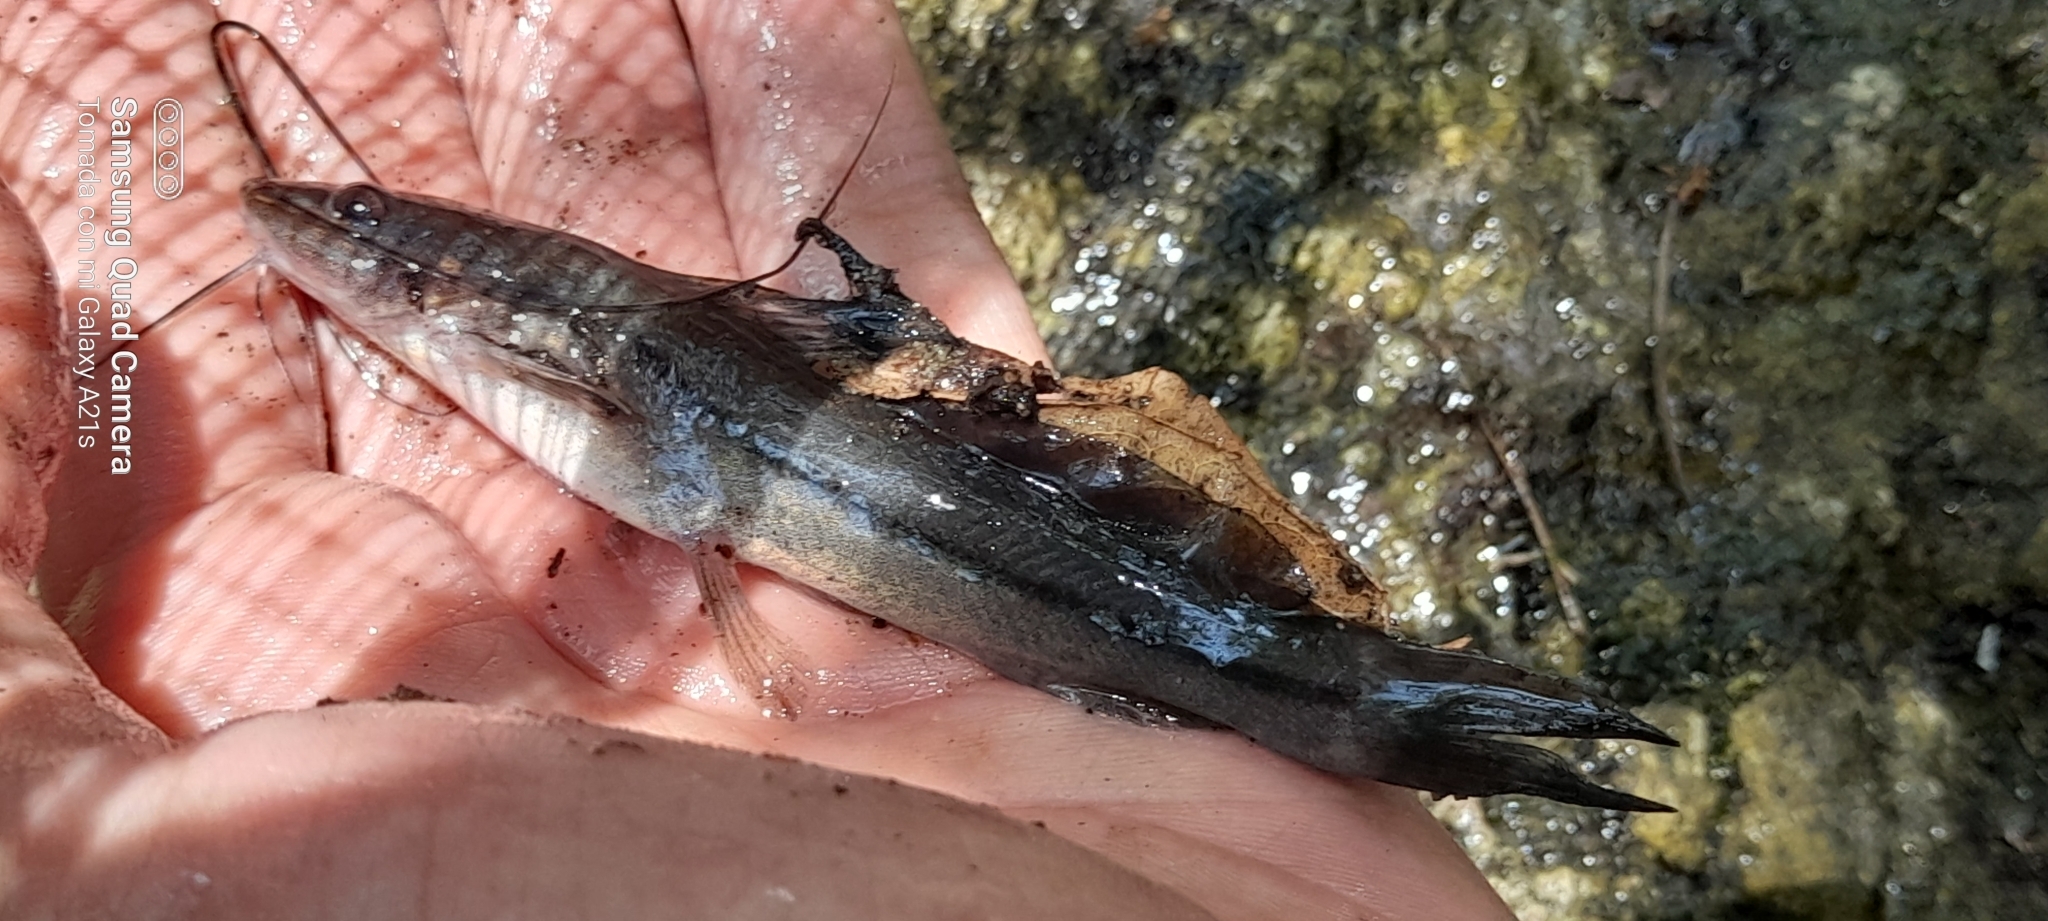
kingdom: Animalia
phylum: Chordata
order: Siluriformes
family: Heptapteridae
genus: Pimelodella
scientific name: Pimelodella chagresi
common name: Catfish
